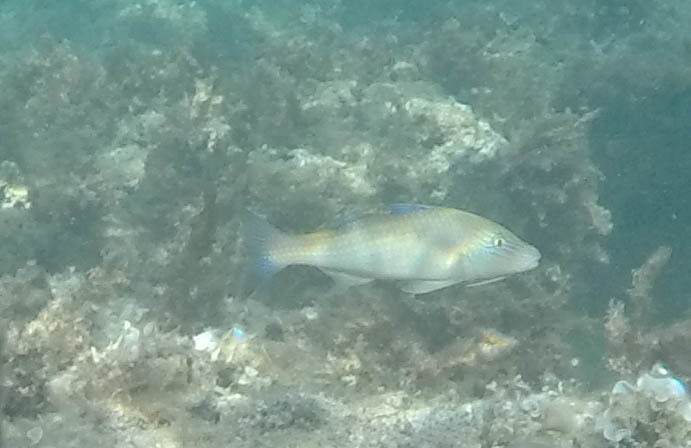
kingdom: Animalia
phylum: Chordata
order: Perciformes
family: Mullidae
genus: Parupeneus
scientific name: Parupeneus cyclostomus
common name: Goldsaddle goatfish
